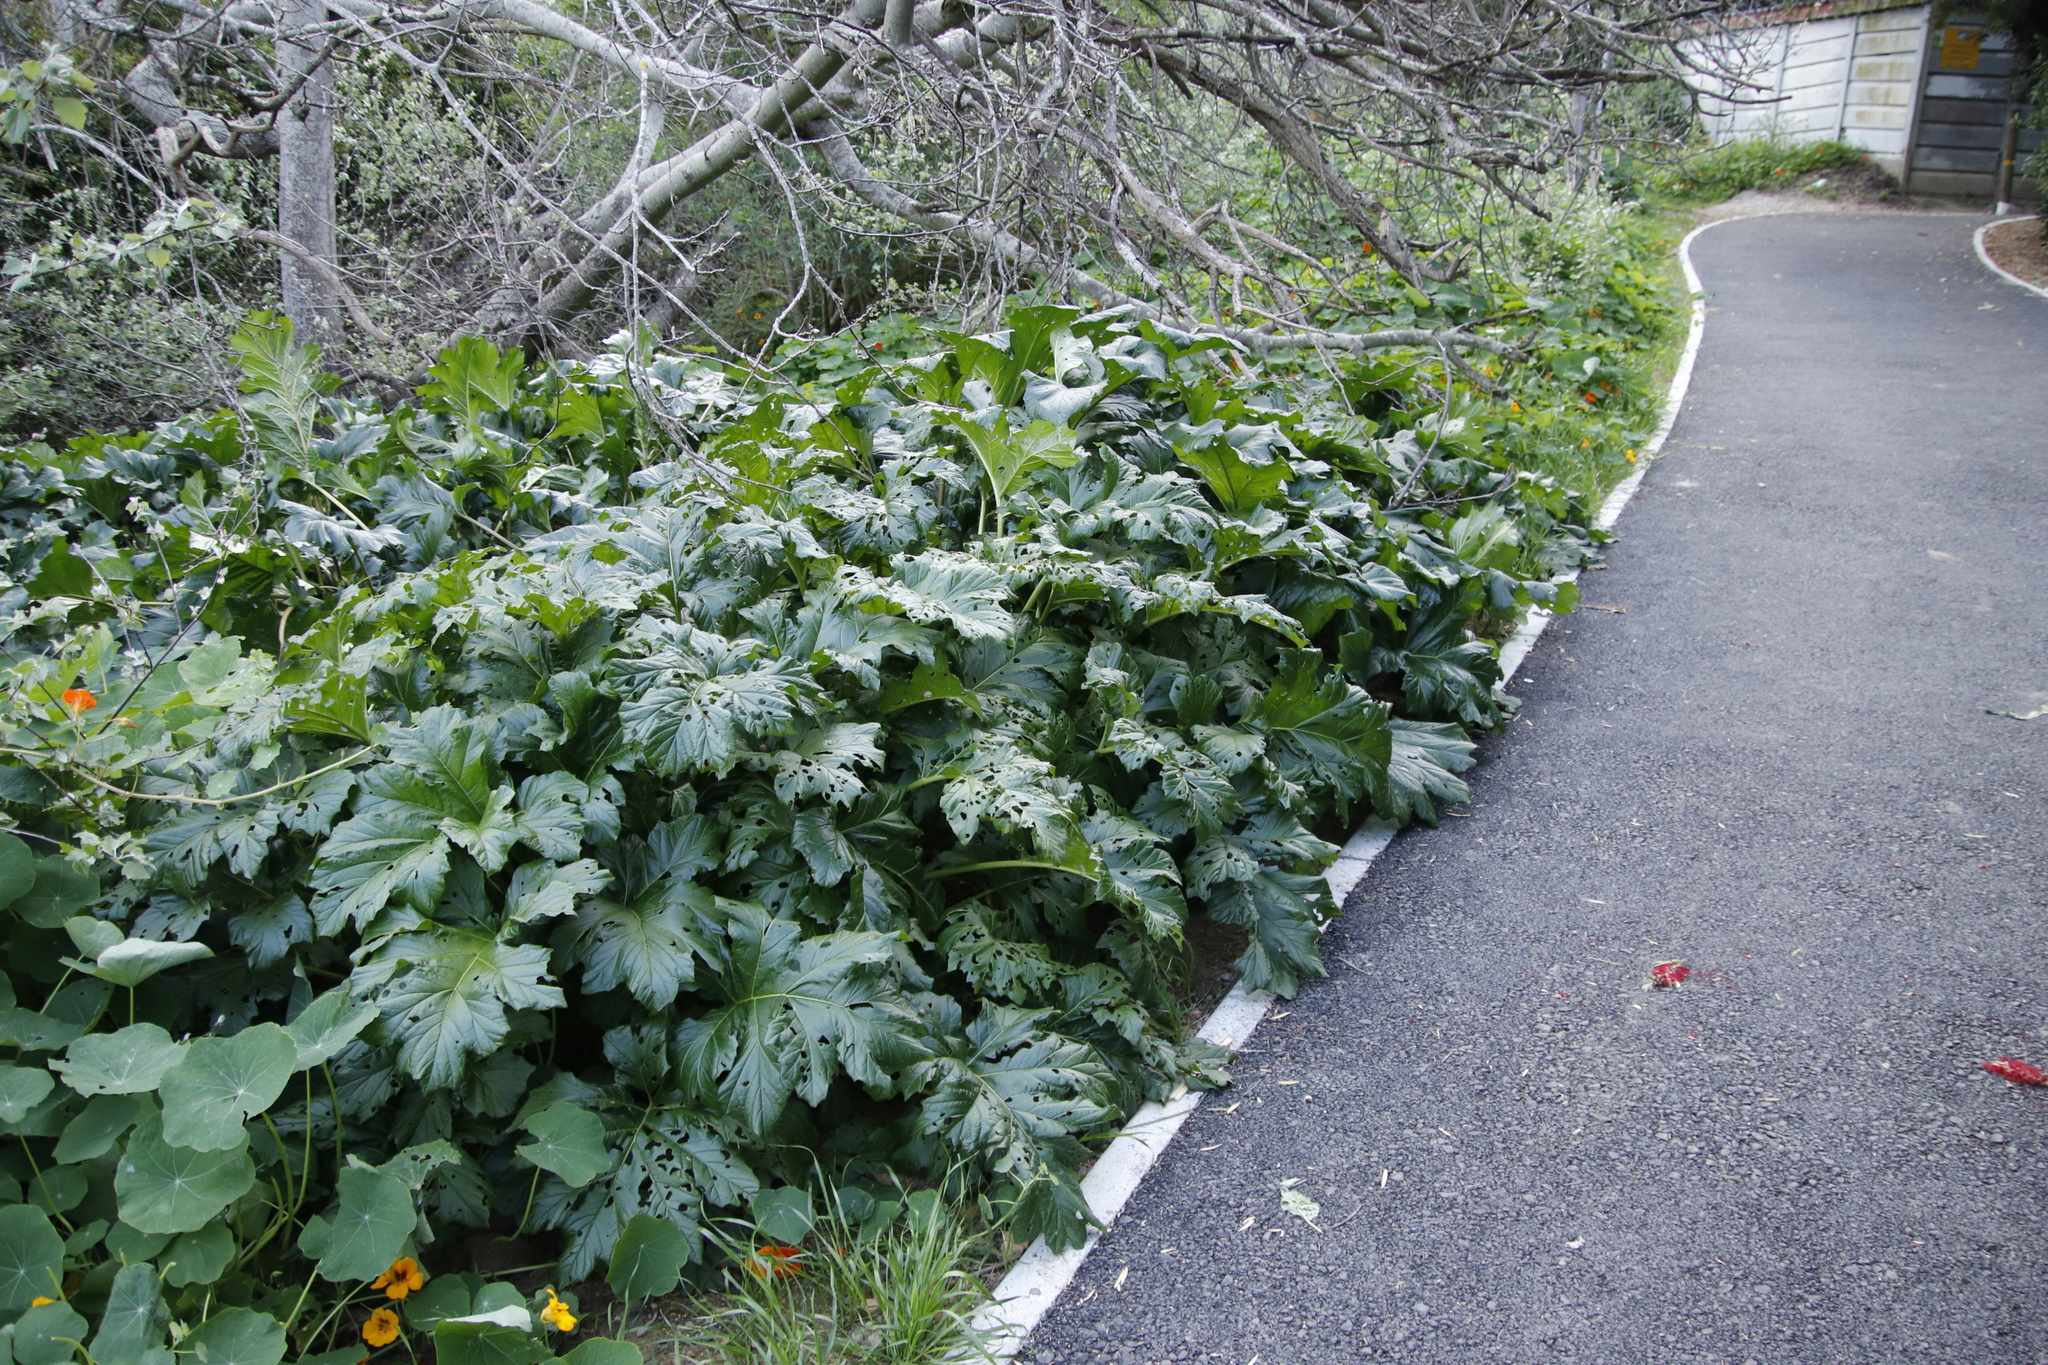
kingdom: Plantae
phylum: Tracheophyta
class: Magnoliopsida
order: Lamiales
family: Acanthaceae
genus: Acanthus
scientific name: Acanthus mollis
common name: Bear's-breech
